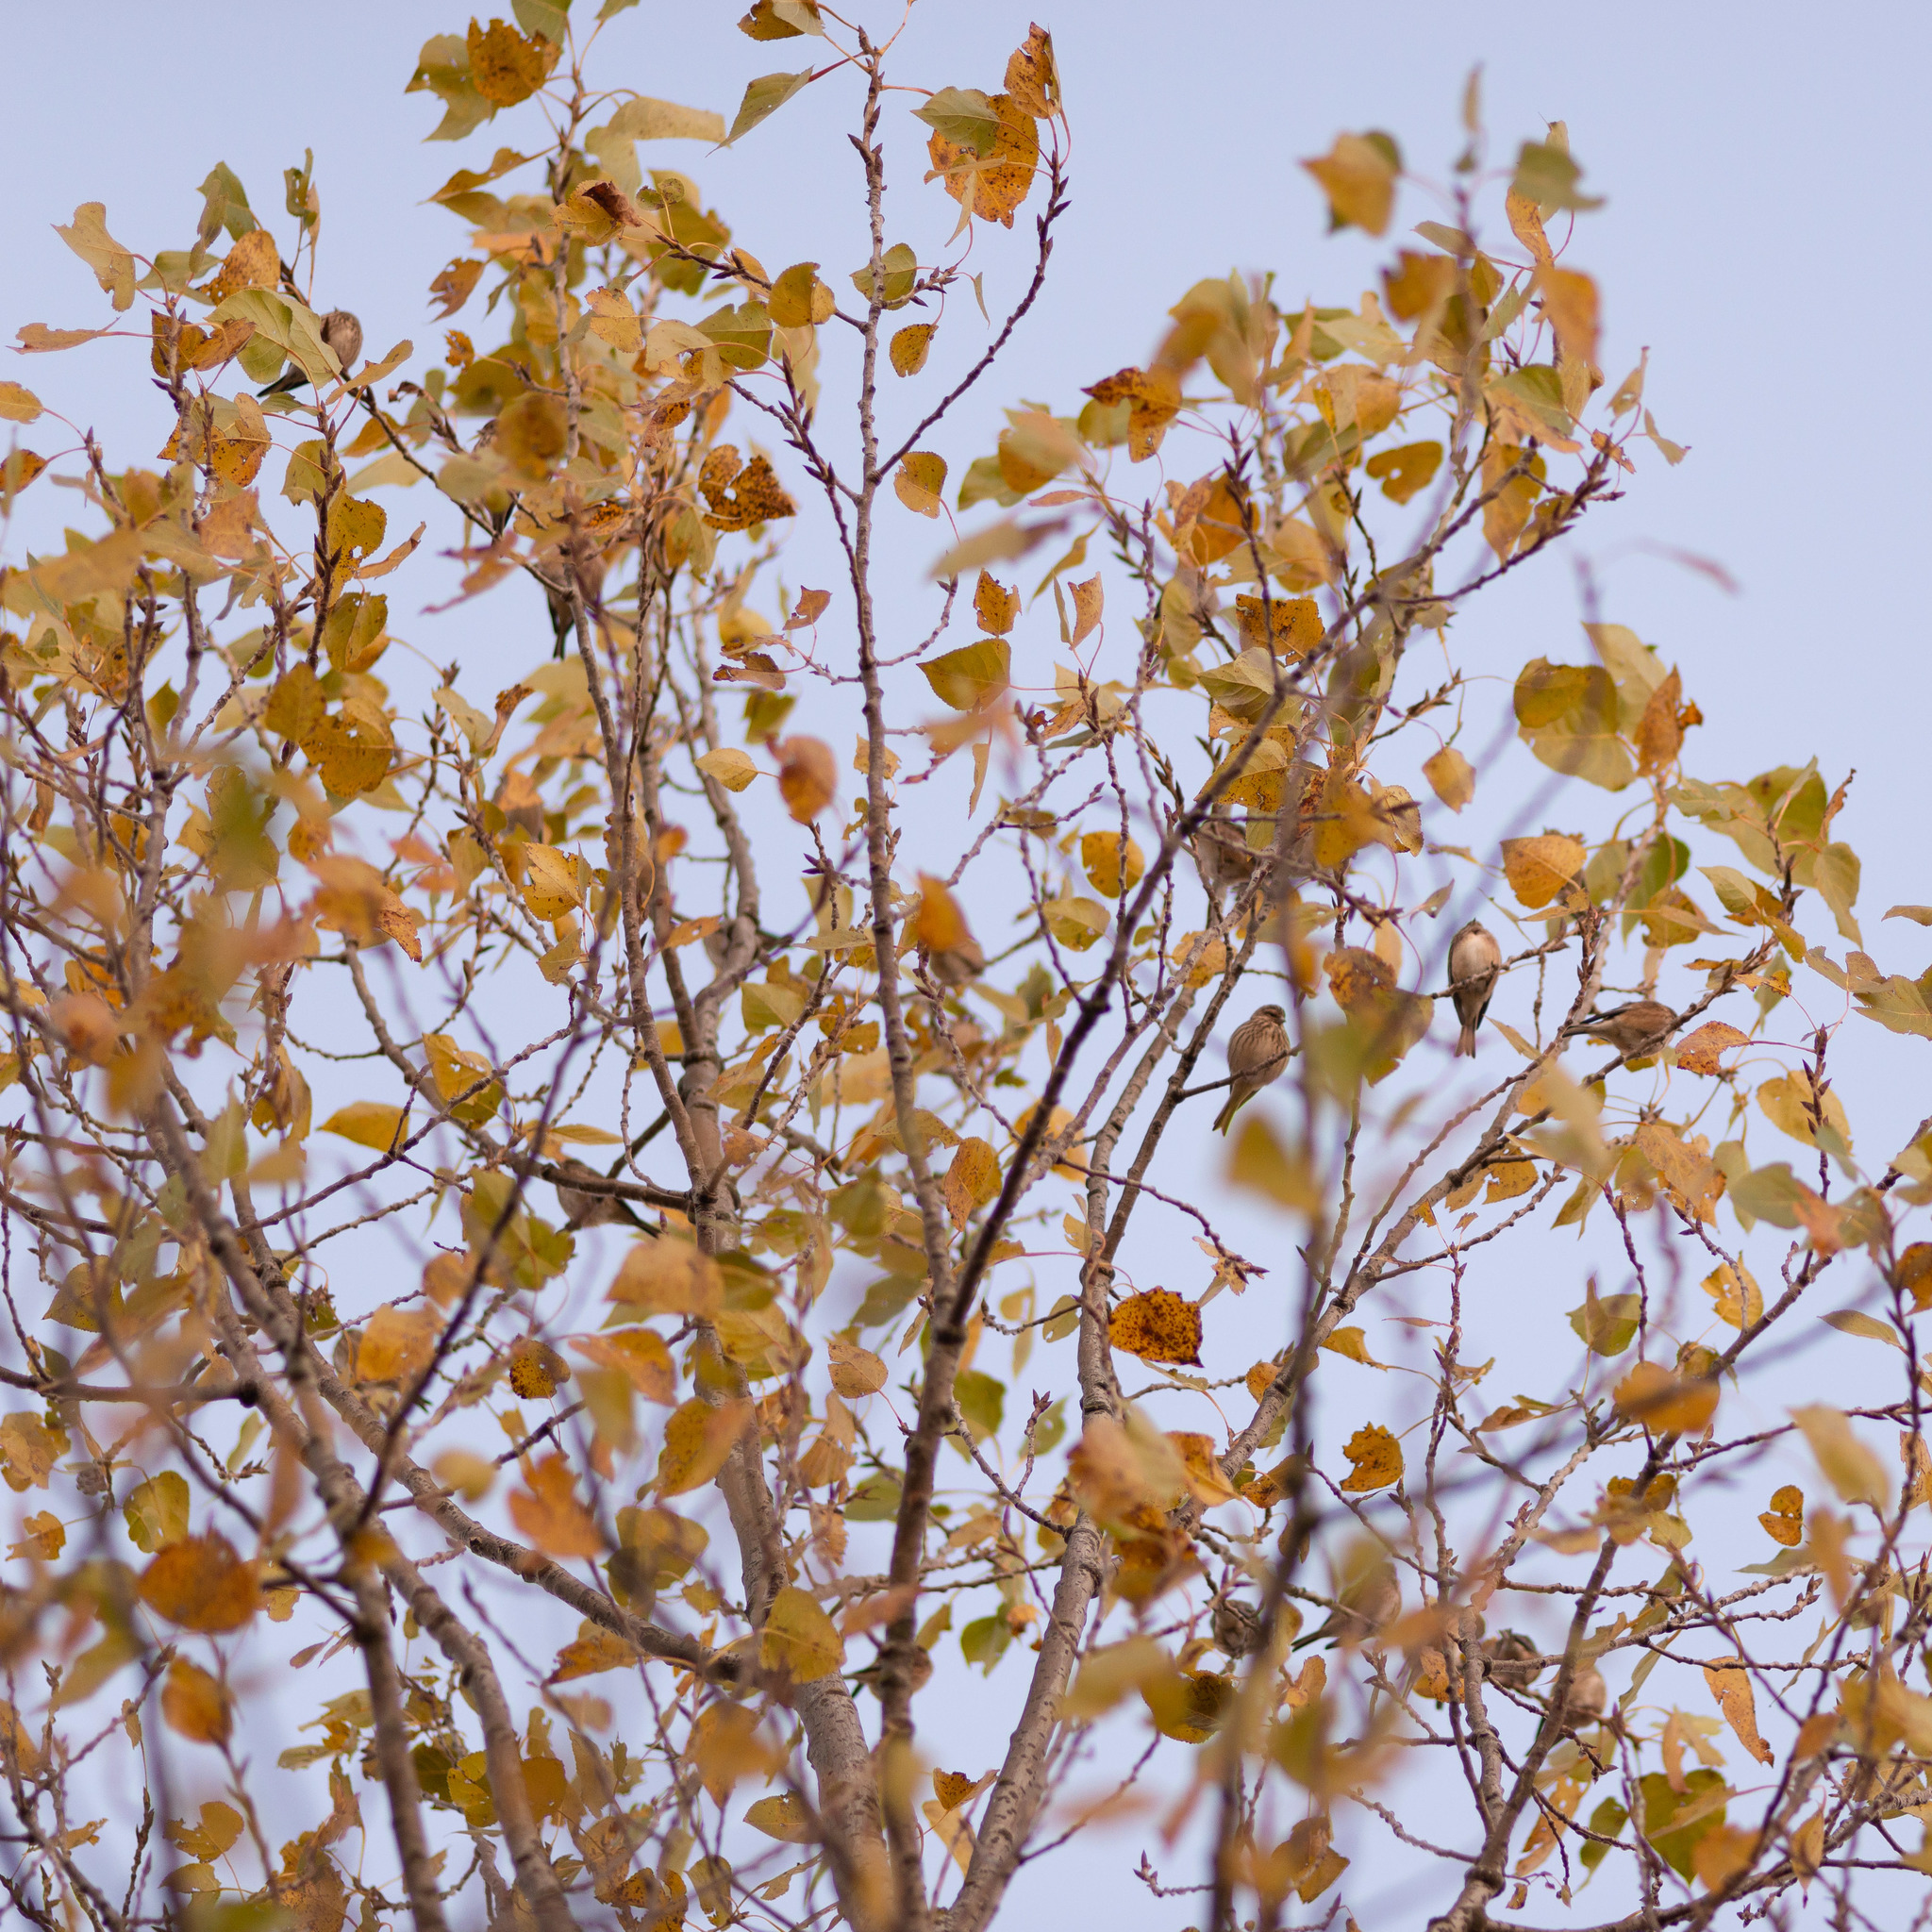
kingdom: Animalia
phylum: Chordata
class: Aves
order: Passeriformes
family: Fringillidae
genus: Linaria
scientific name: Linaria cannabina
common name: Common linnet
